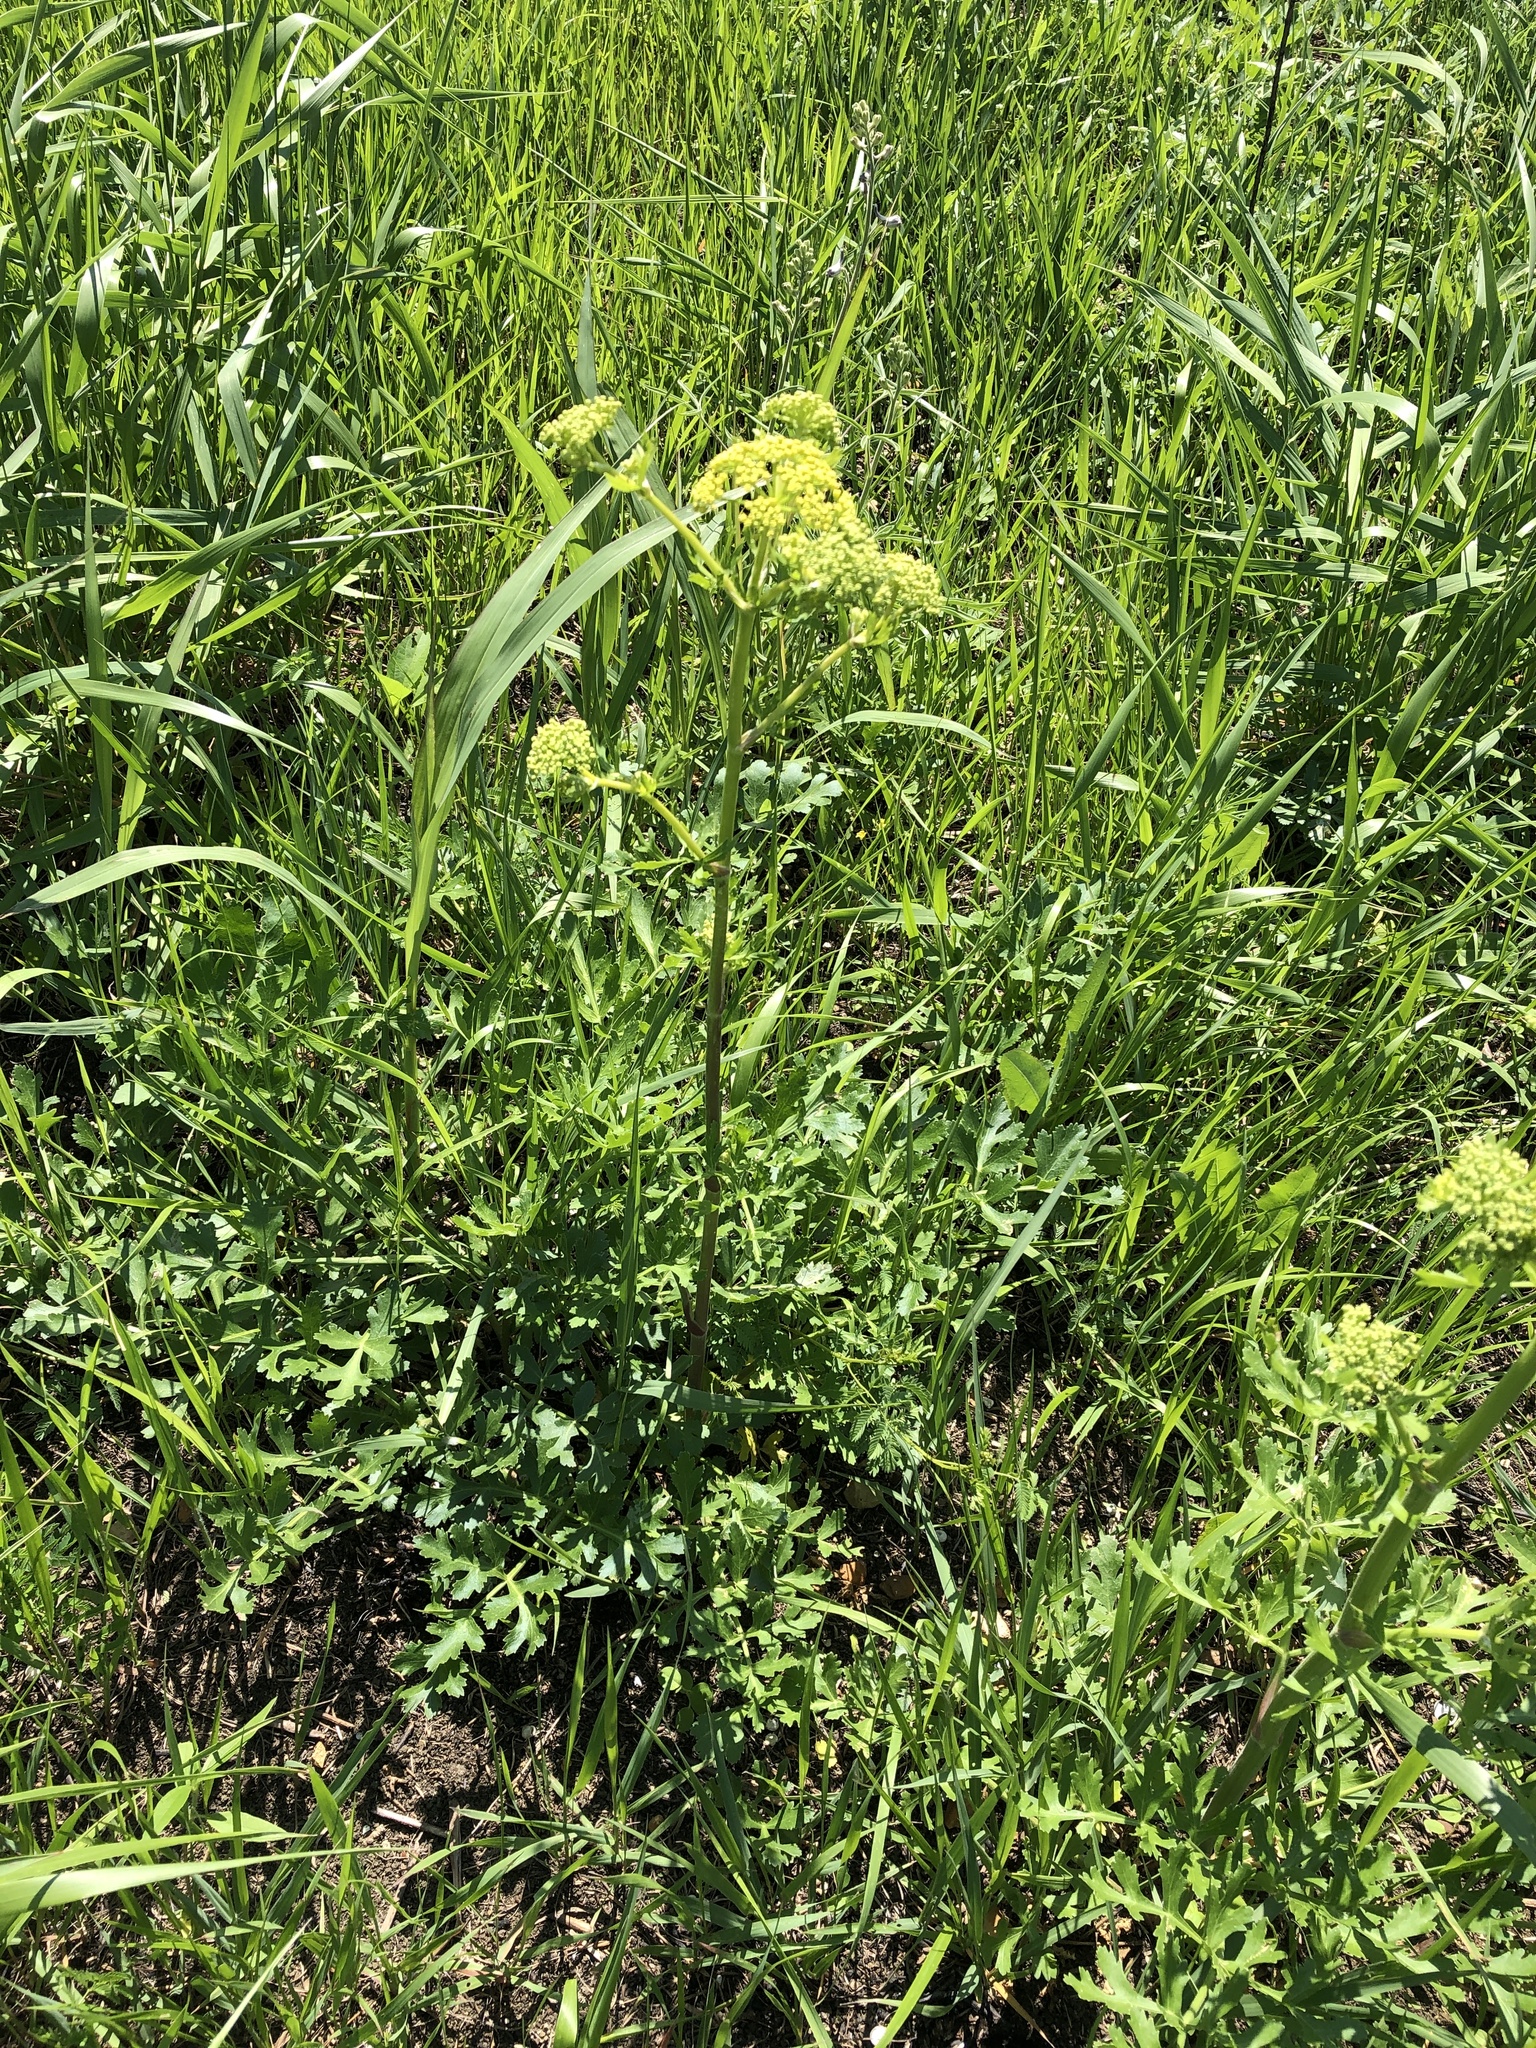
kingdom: Plantae
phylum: Tracheophyta
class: Magnoliopsida
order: Apiales
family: Apiaceae
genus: Polytaenia
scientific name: Polytaenia texana
